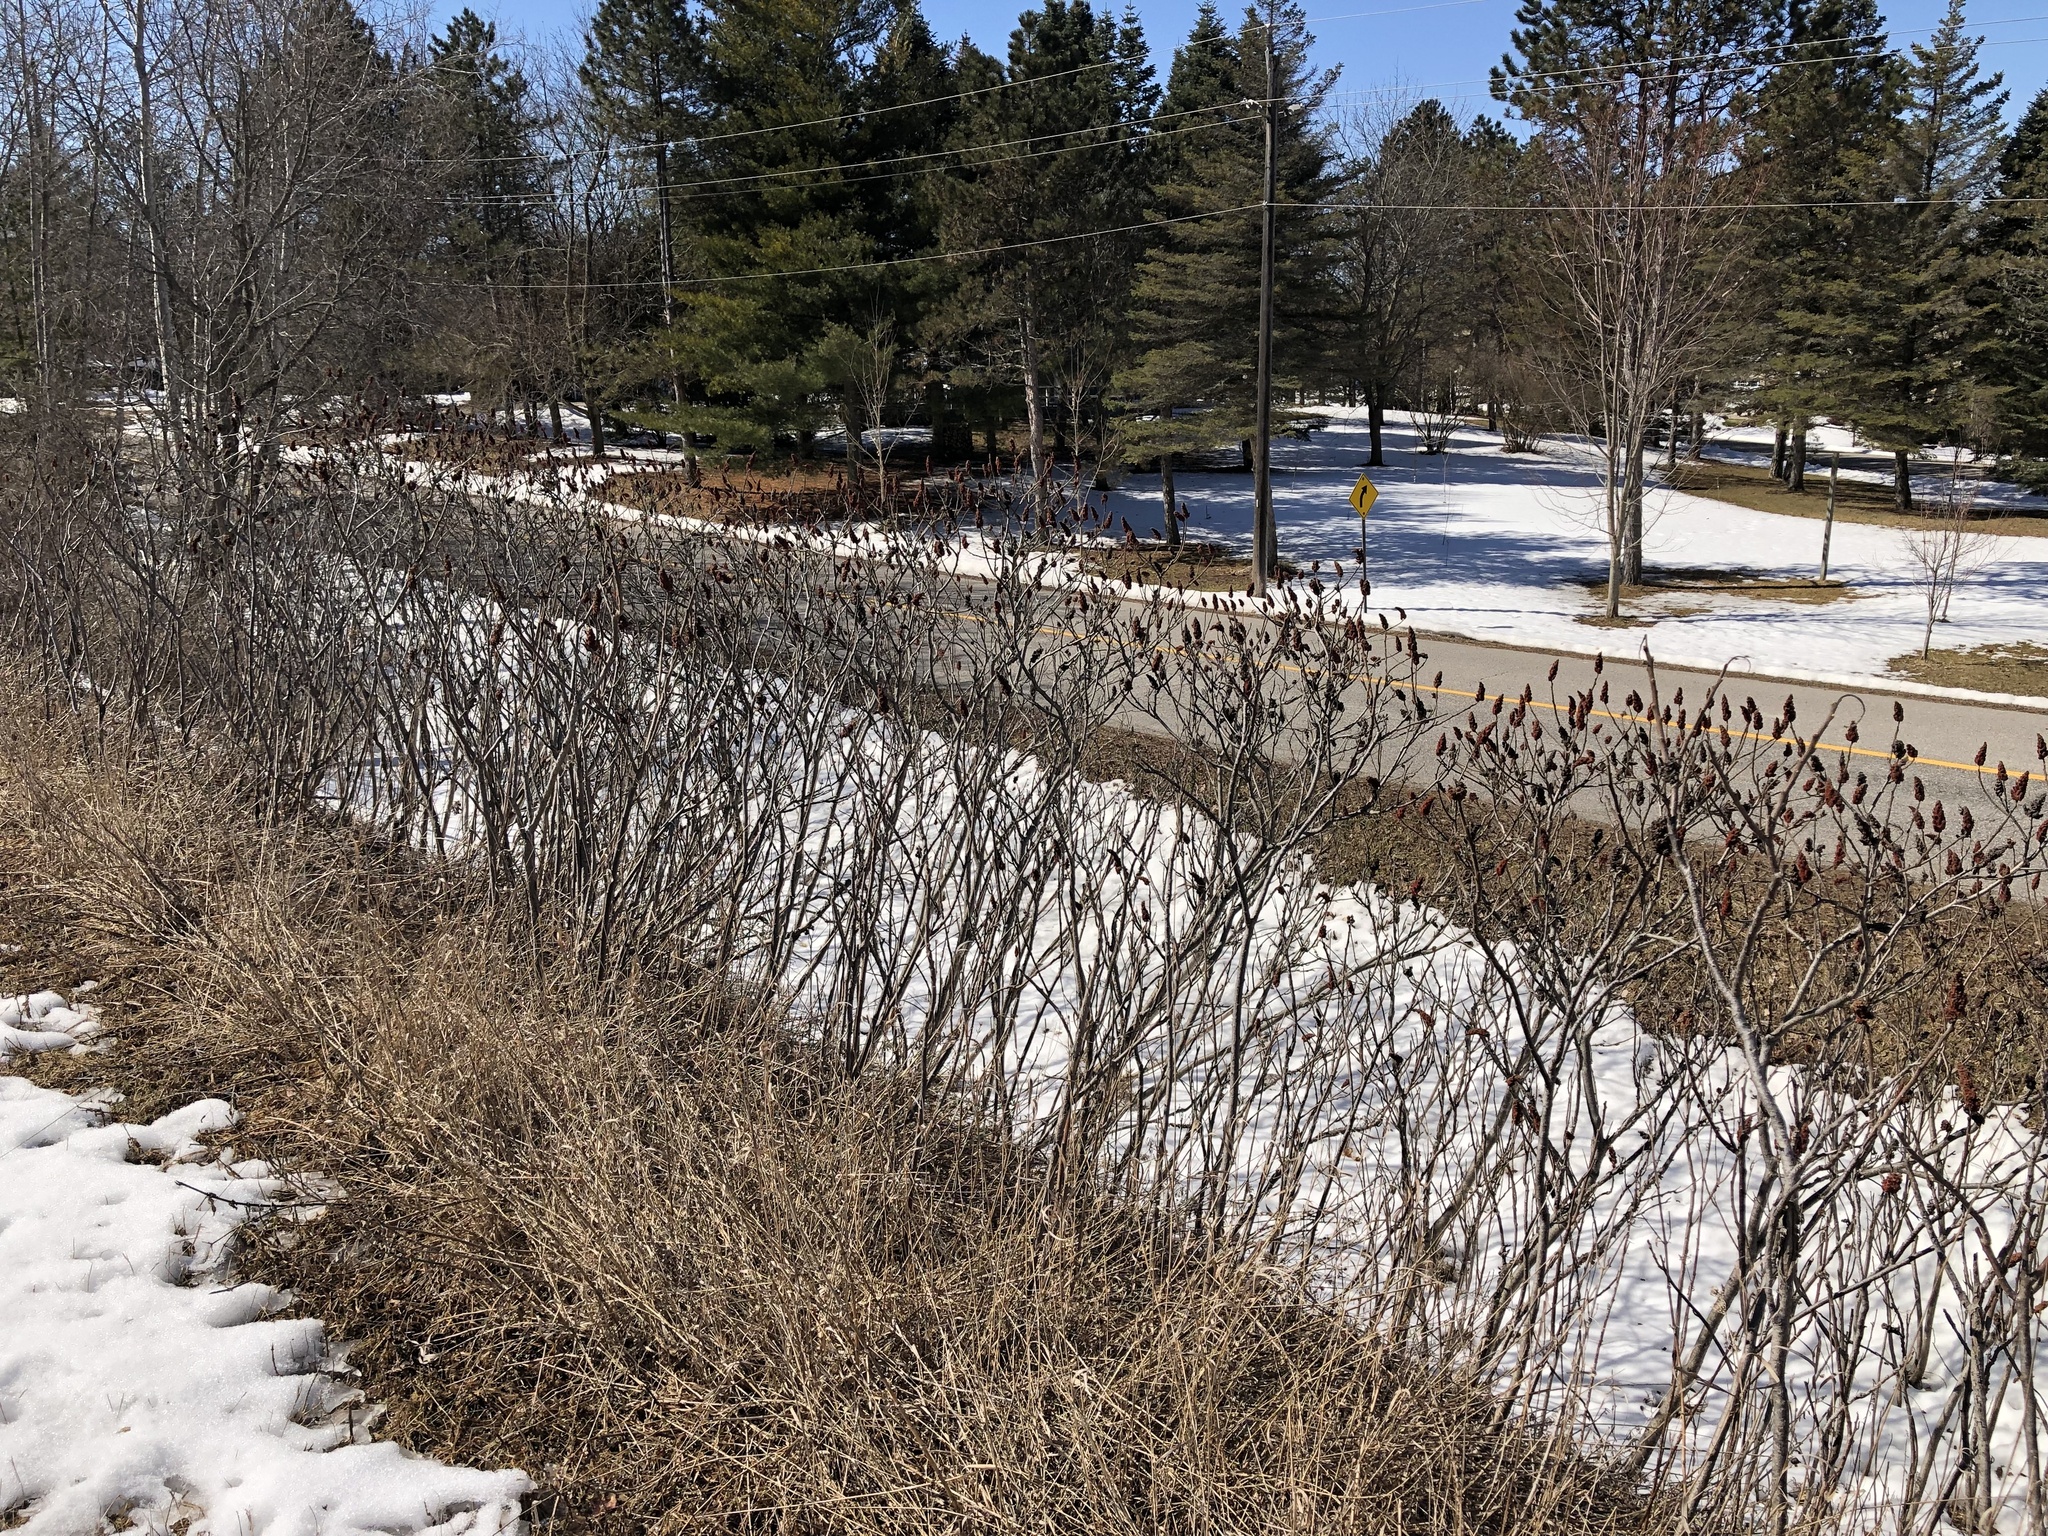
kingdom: Plantae
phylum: Tracheophyta
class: Magnoliopsida
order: Sapindales
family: Anacardiaceae
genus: Rhus
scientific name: Rhus typhina
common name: Staghorn sumac
